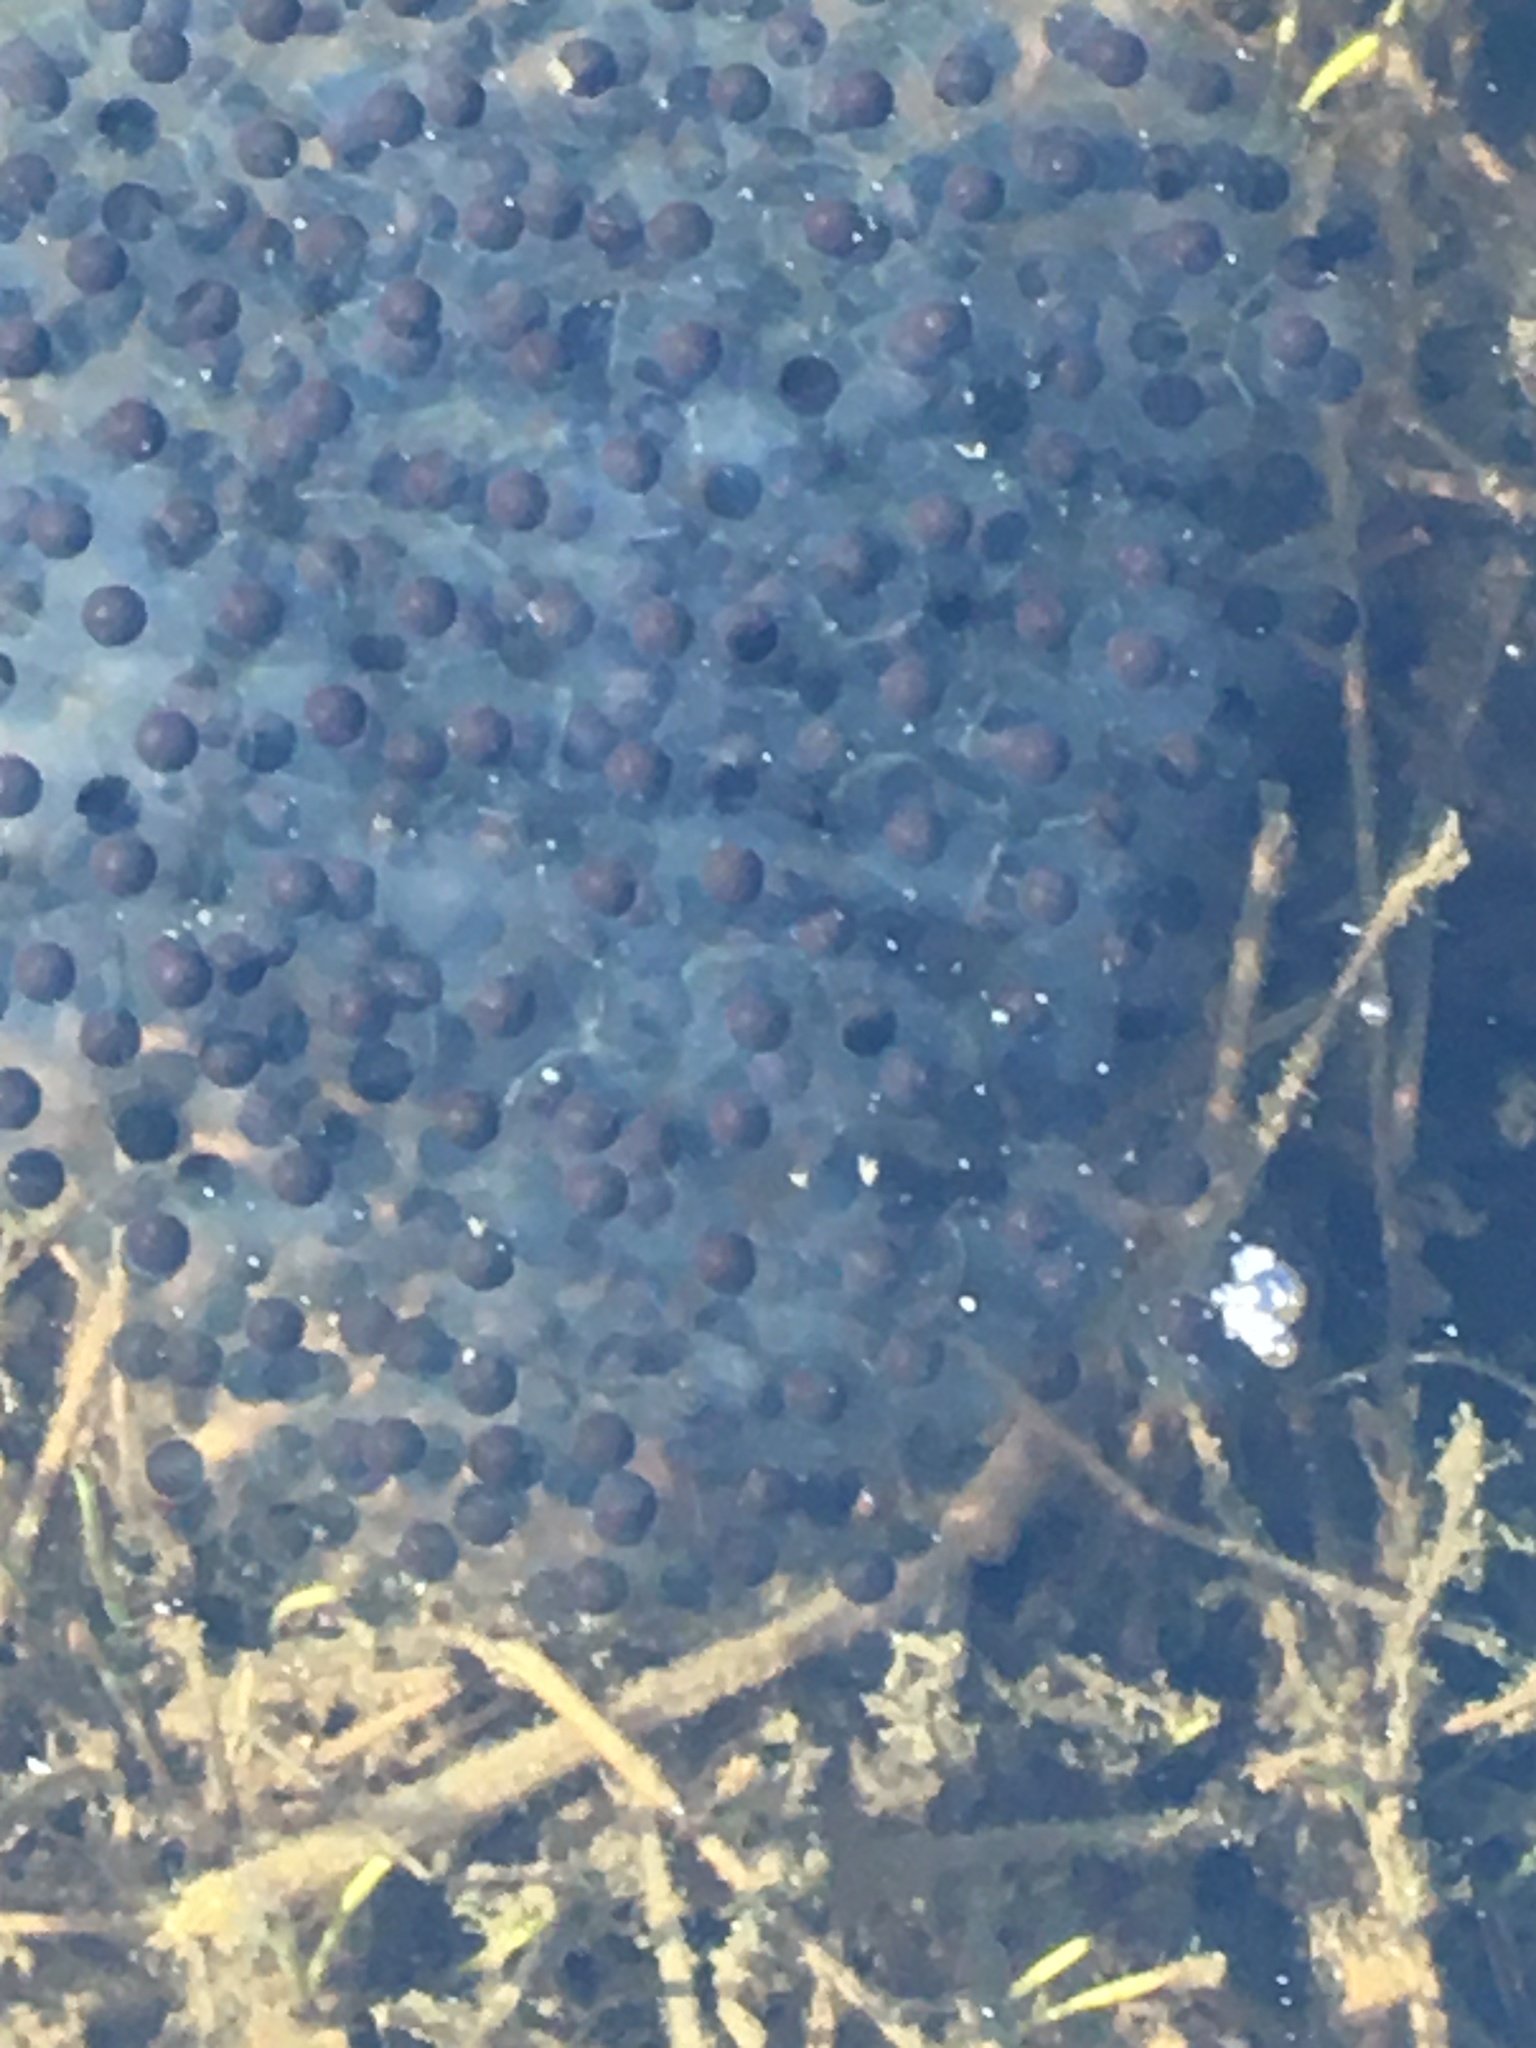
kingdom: Animalia
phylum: Chordata
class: Amphibia
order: Anura
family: Ranidae
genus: Lithobates
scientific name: Lithobates sylvaticus
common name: Wood frog
